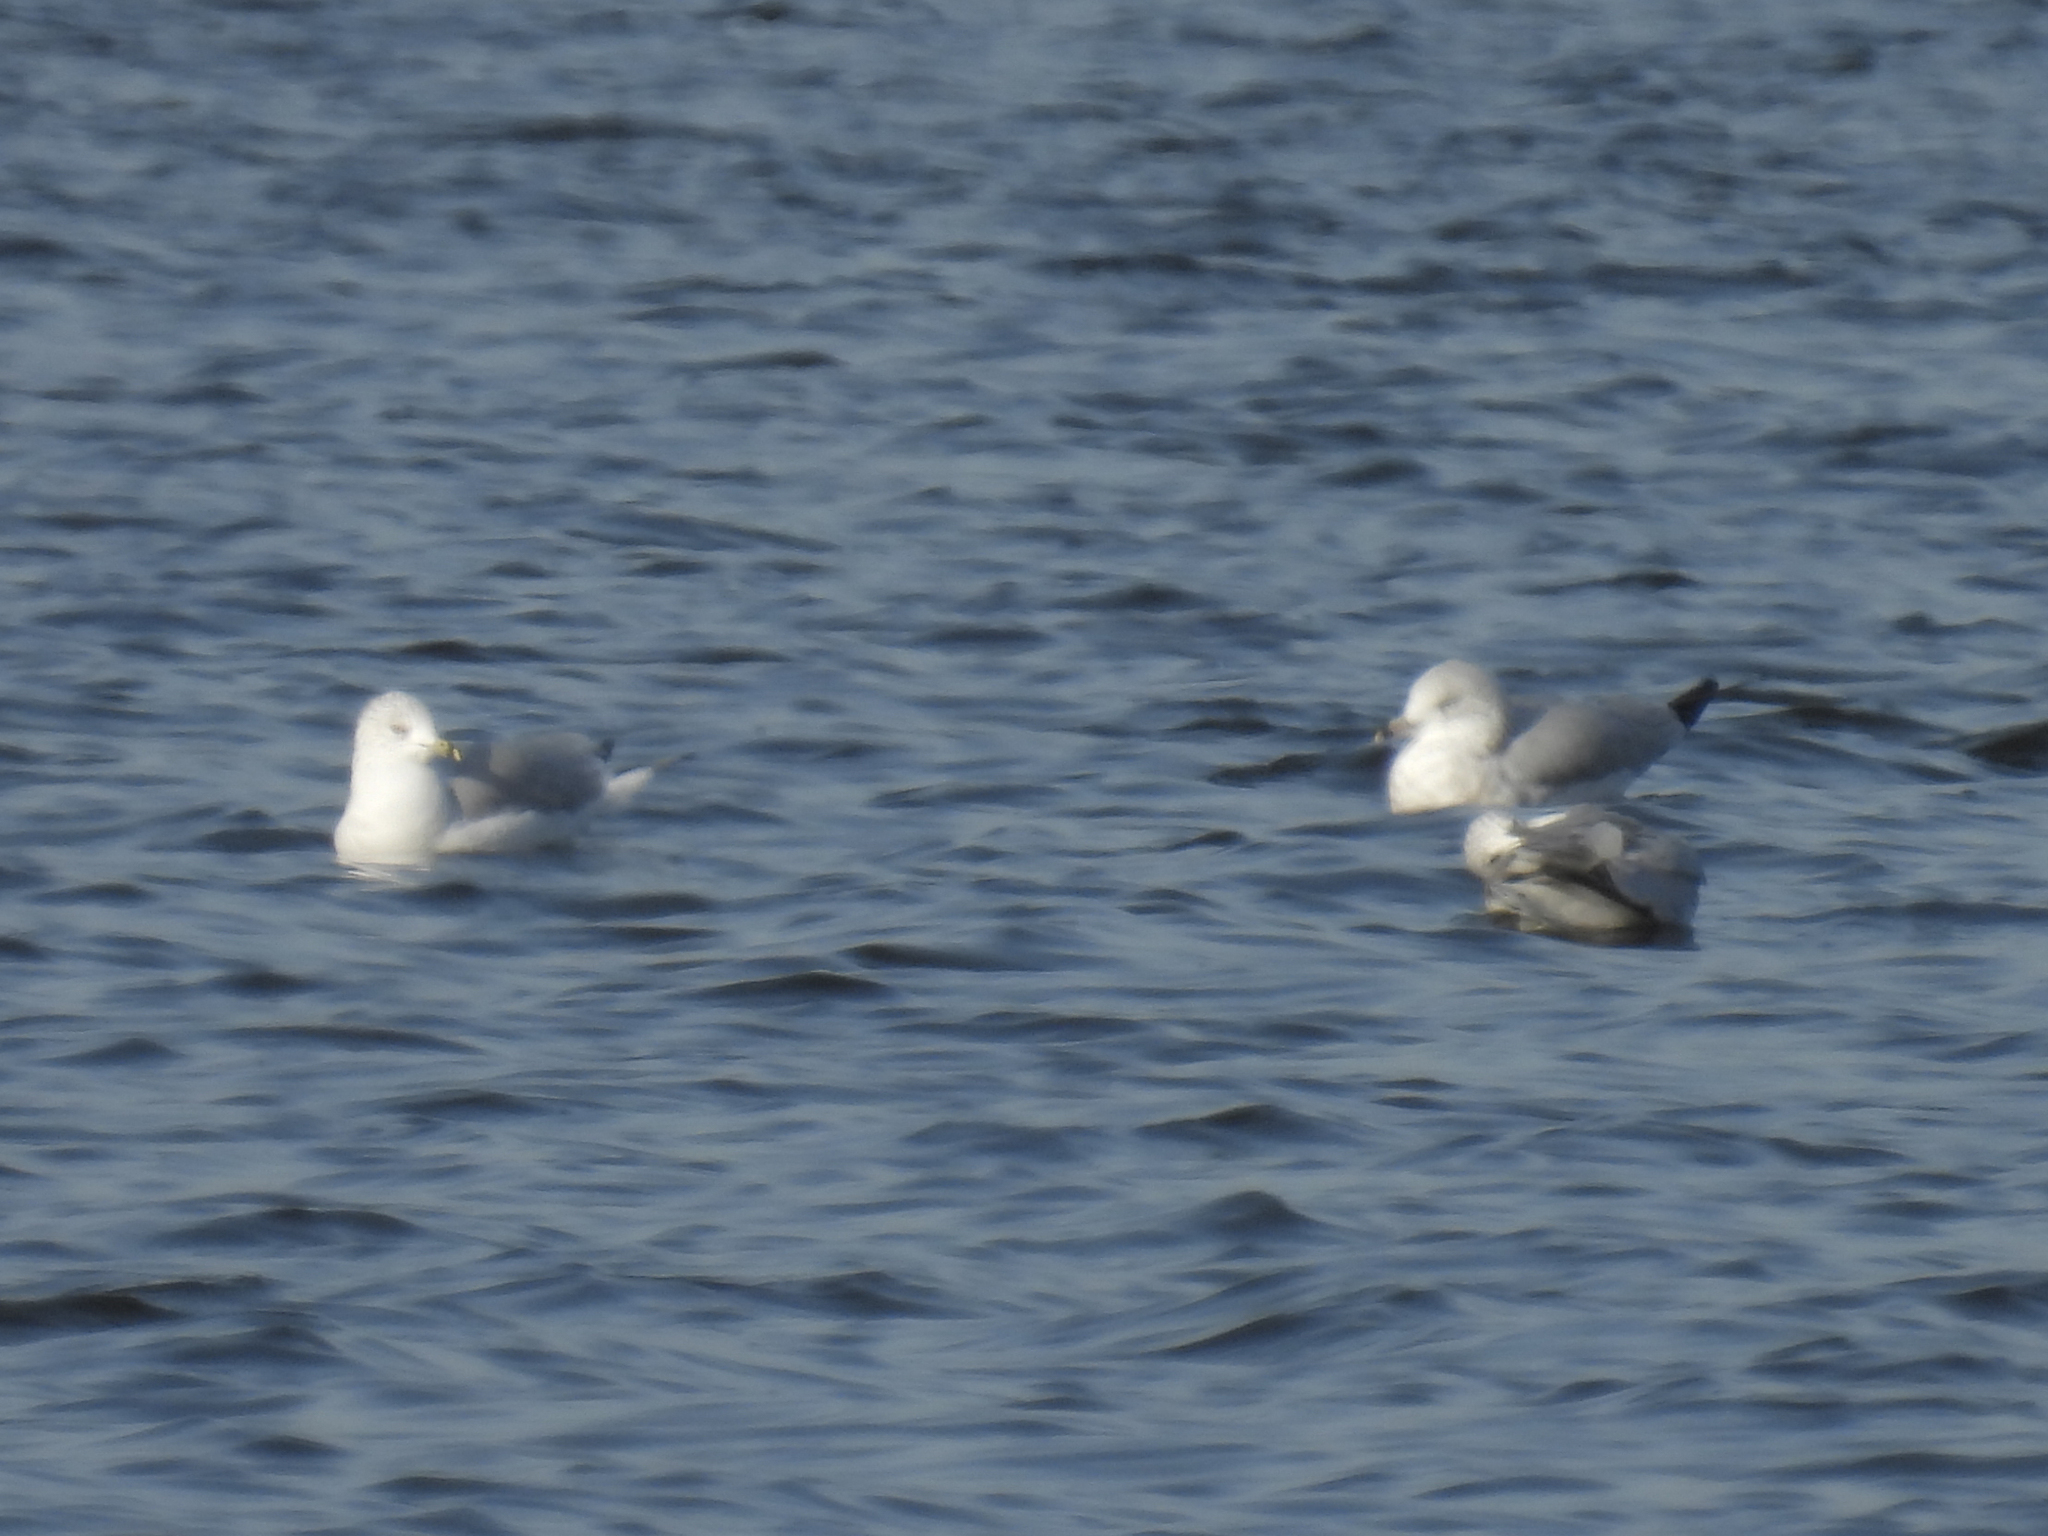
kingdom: Animalia
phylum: Chordata
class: Aves
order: Charadriiformes
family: Laridae
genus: Larus
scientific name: Larus delawarensis
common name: Ring-billed gull
